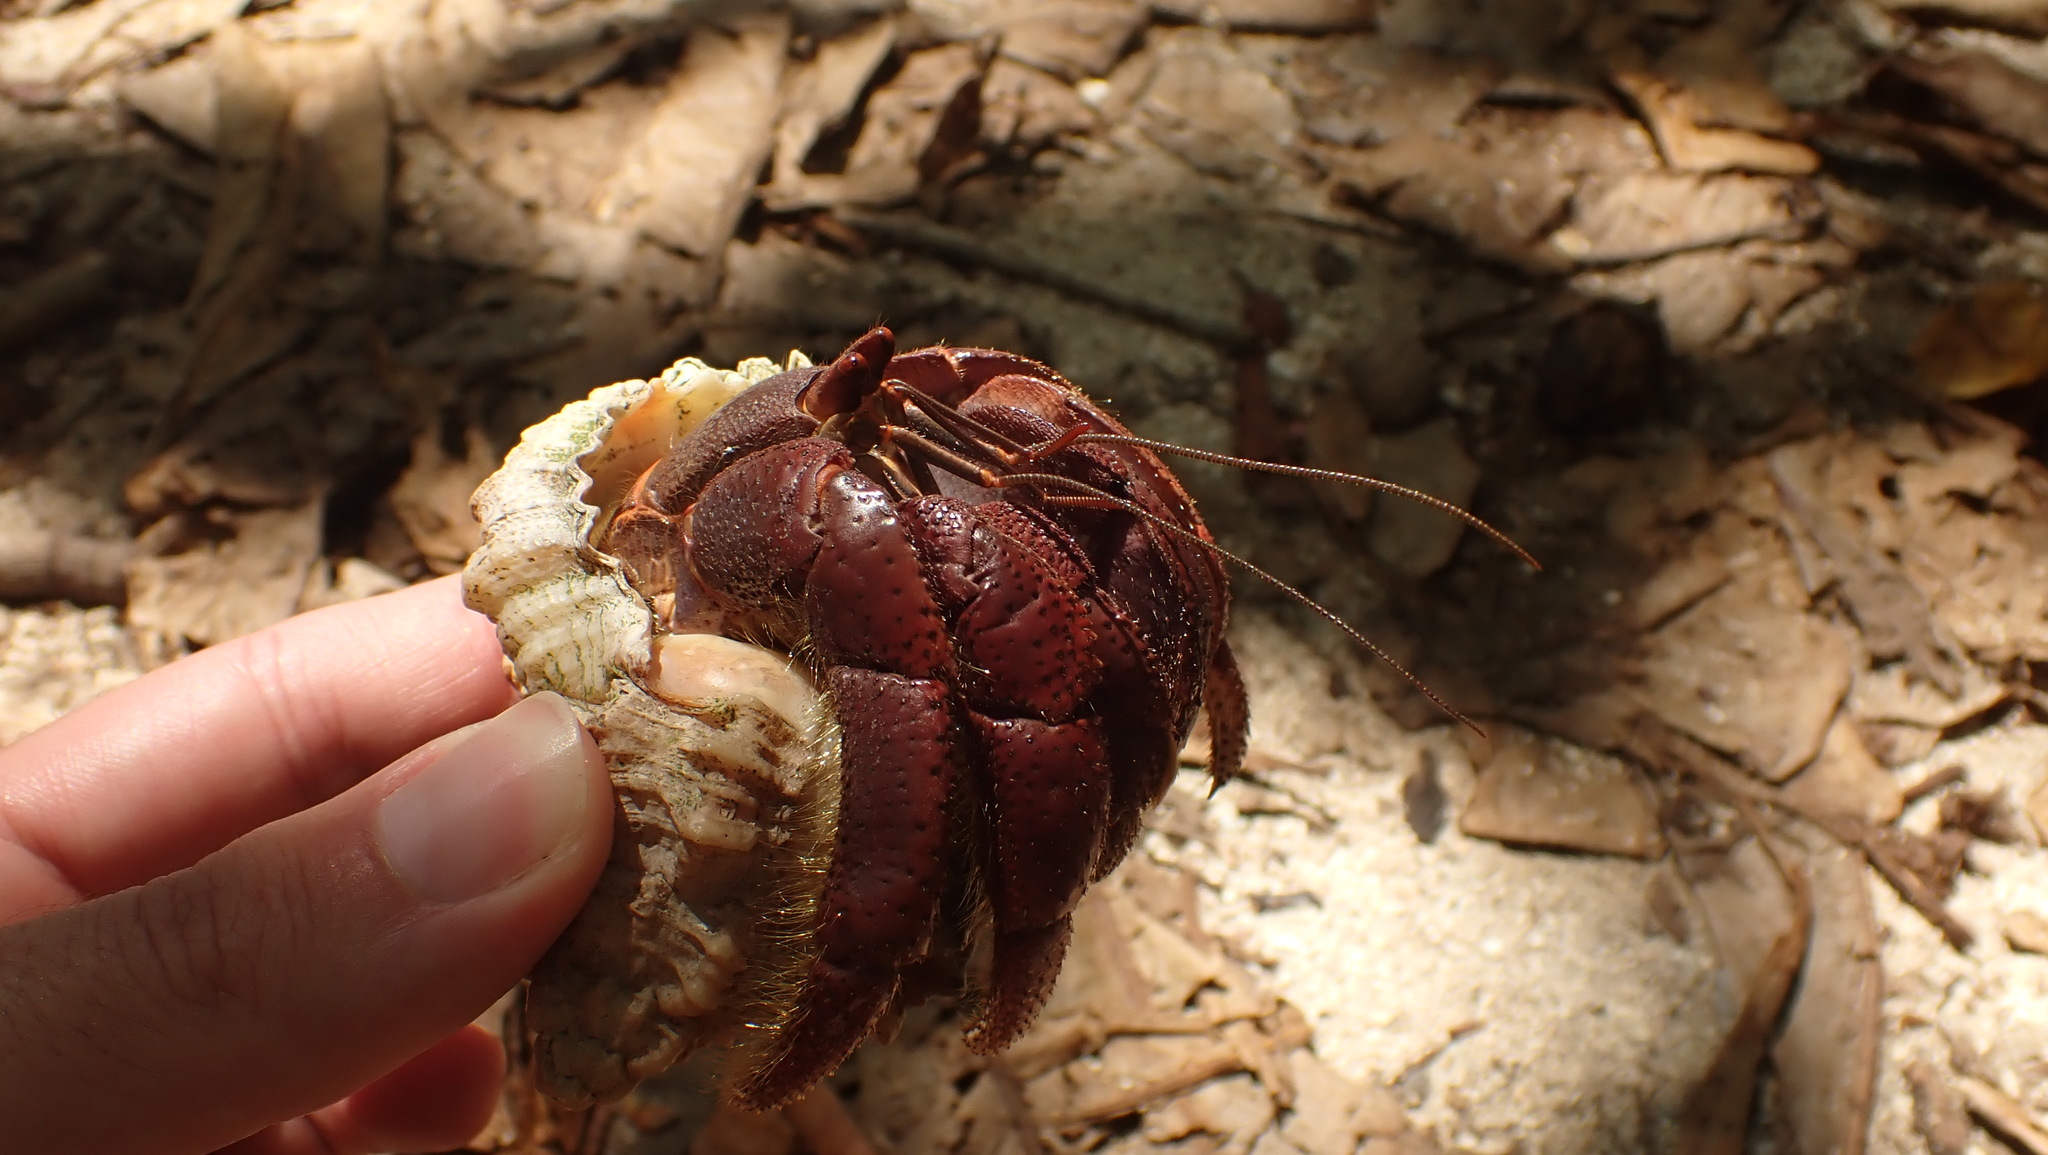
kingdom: Animalia
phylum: Arthropoda
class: Malacostraca
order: Decapoda
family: Coenobitidae
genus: Coenobita
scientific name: Coenobita clypeatus
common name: Caribbean hermit crab
